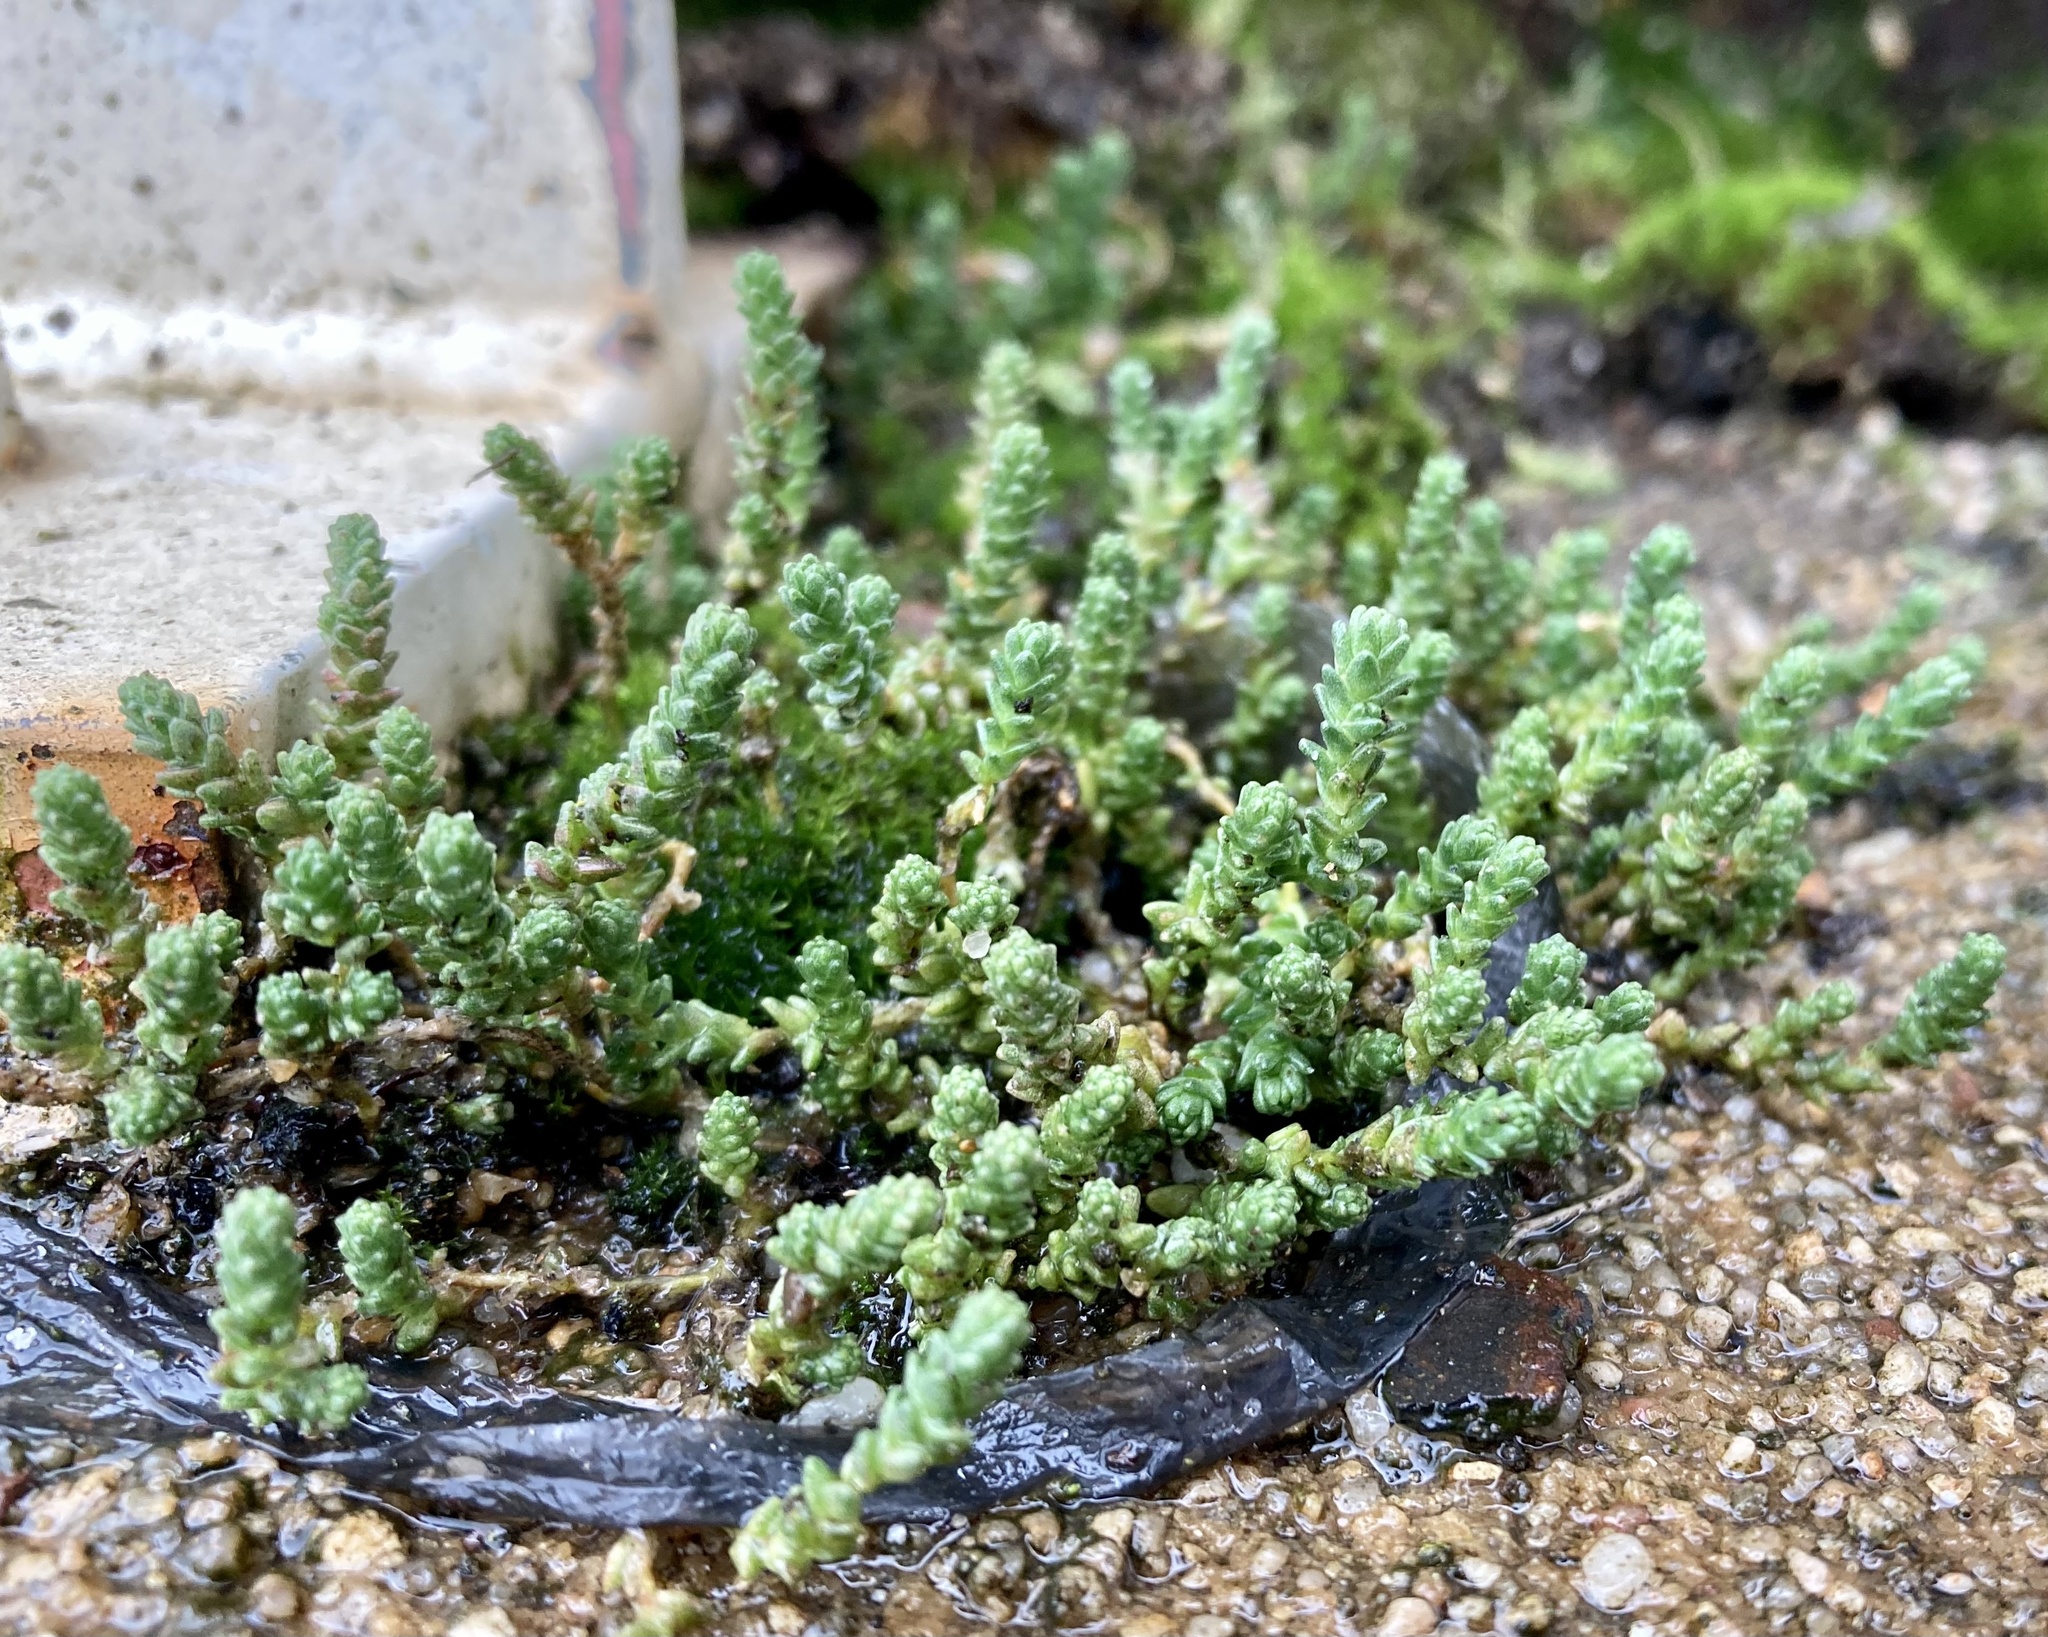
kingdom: Plantae
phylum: Tracheophyta
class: Magnoliopsida
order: Saxifragales
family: Crassulaceae
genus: Sedum
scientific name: Sedum acre
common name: Biting stonecrop
